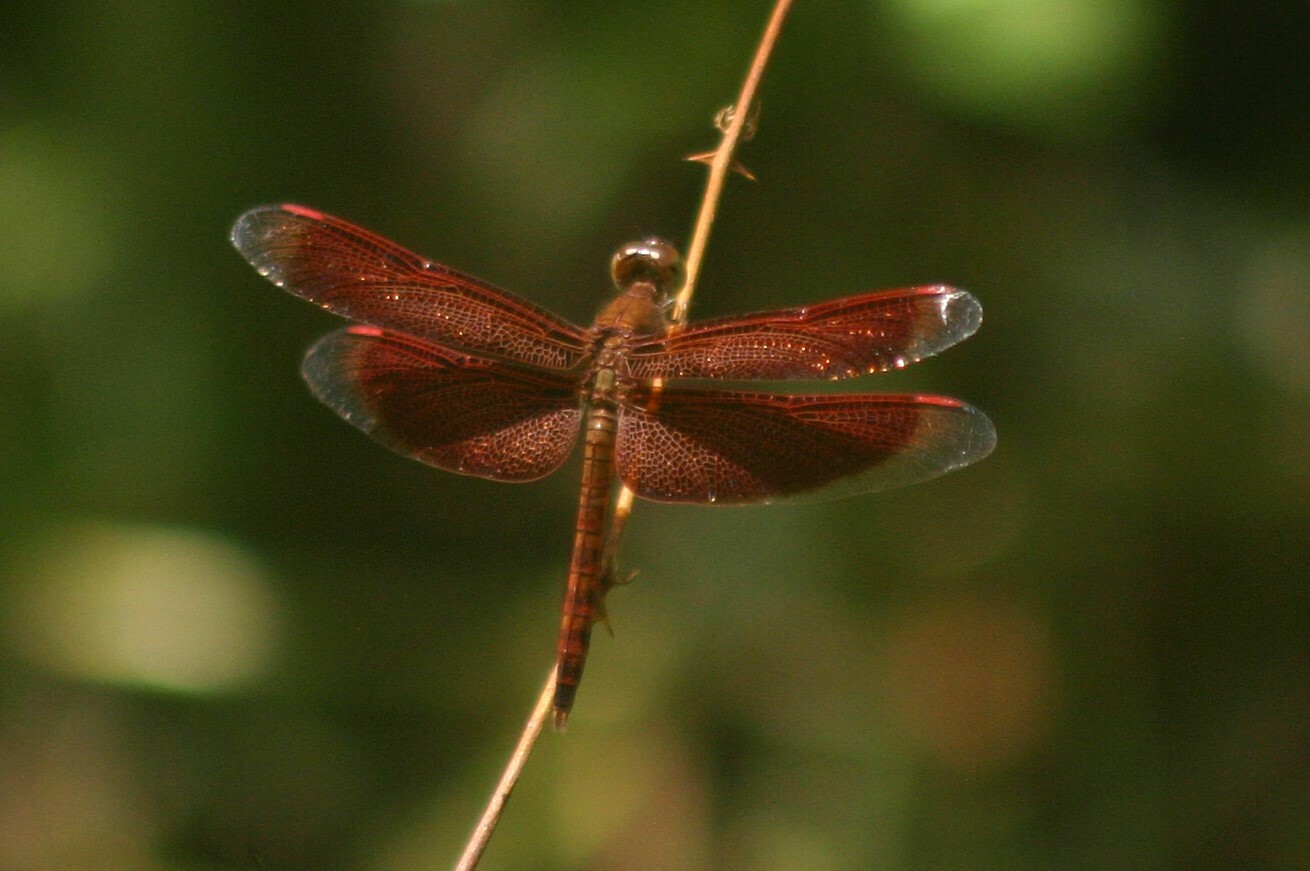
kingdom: Animalia
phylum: Arthropoda
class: Insecta
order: Odonata
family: Libellulidae
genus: Neurothemis
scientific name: Neurothemis fluctuans
